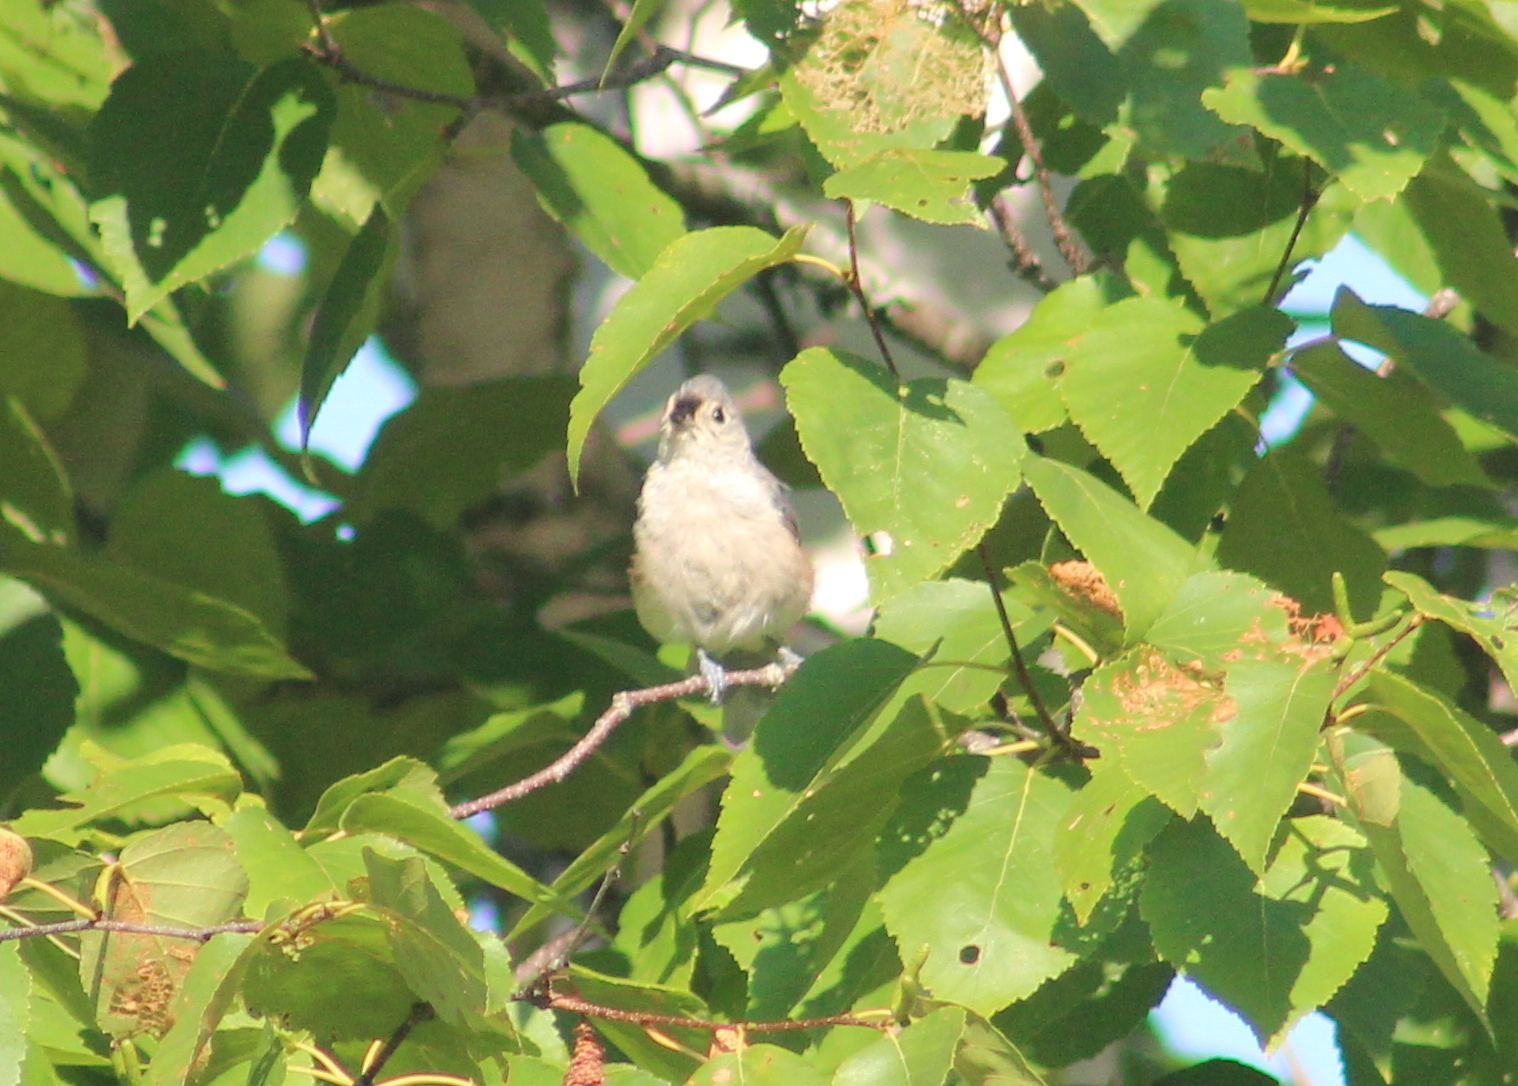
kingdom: Animalia
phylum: Chordata
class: Aves
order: Passeriformes
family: Paridae
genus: Baeolophus
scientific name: Baeolophus bicolor
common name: Tufted titmouse
